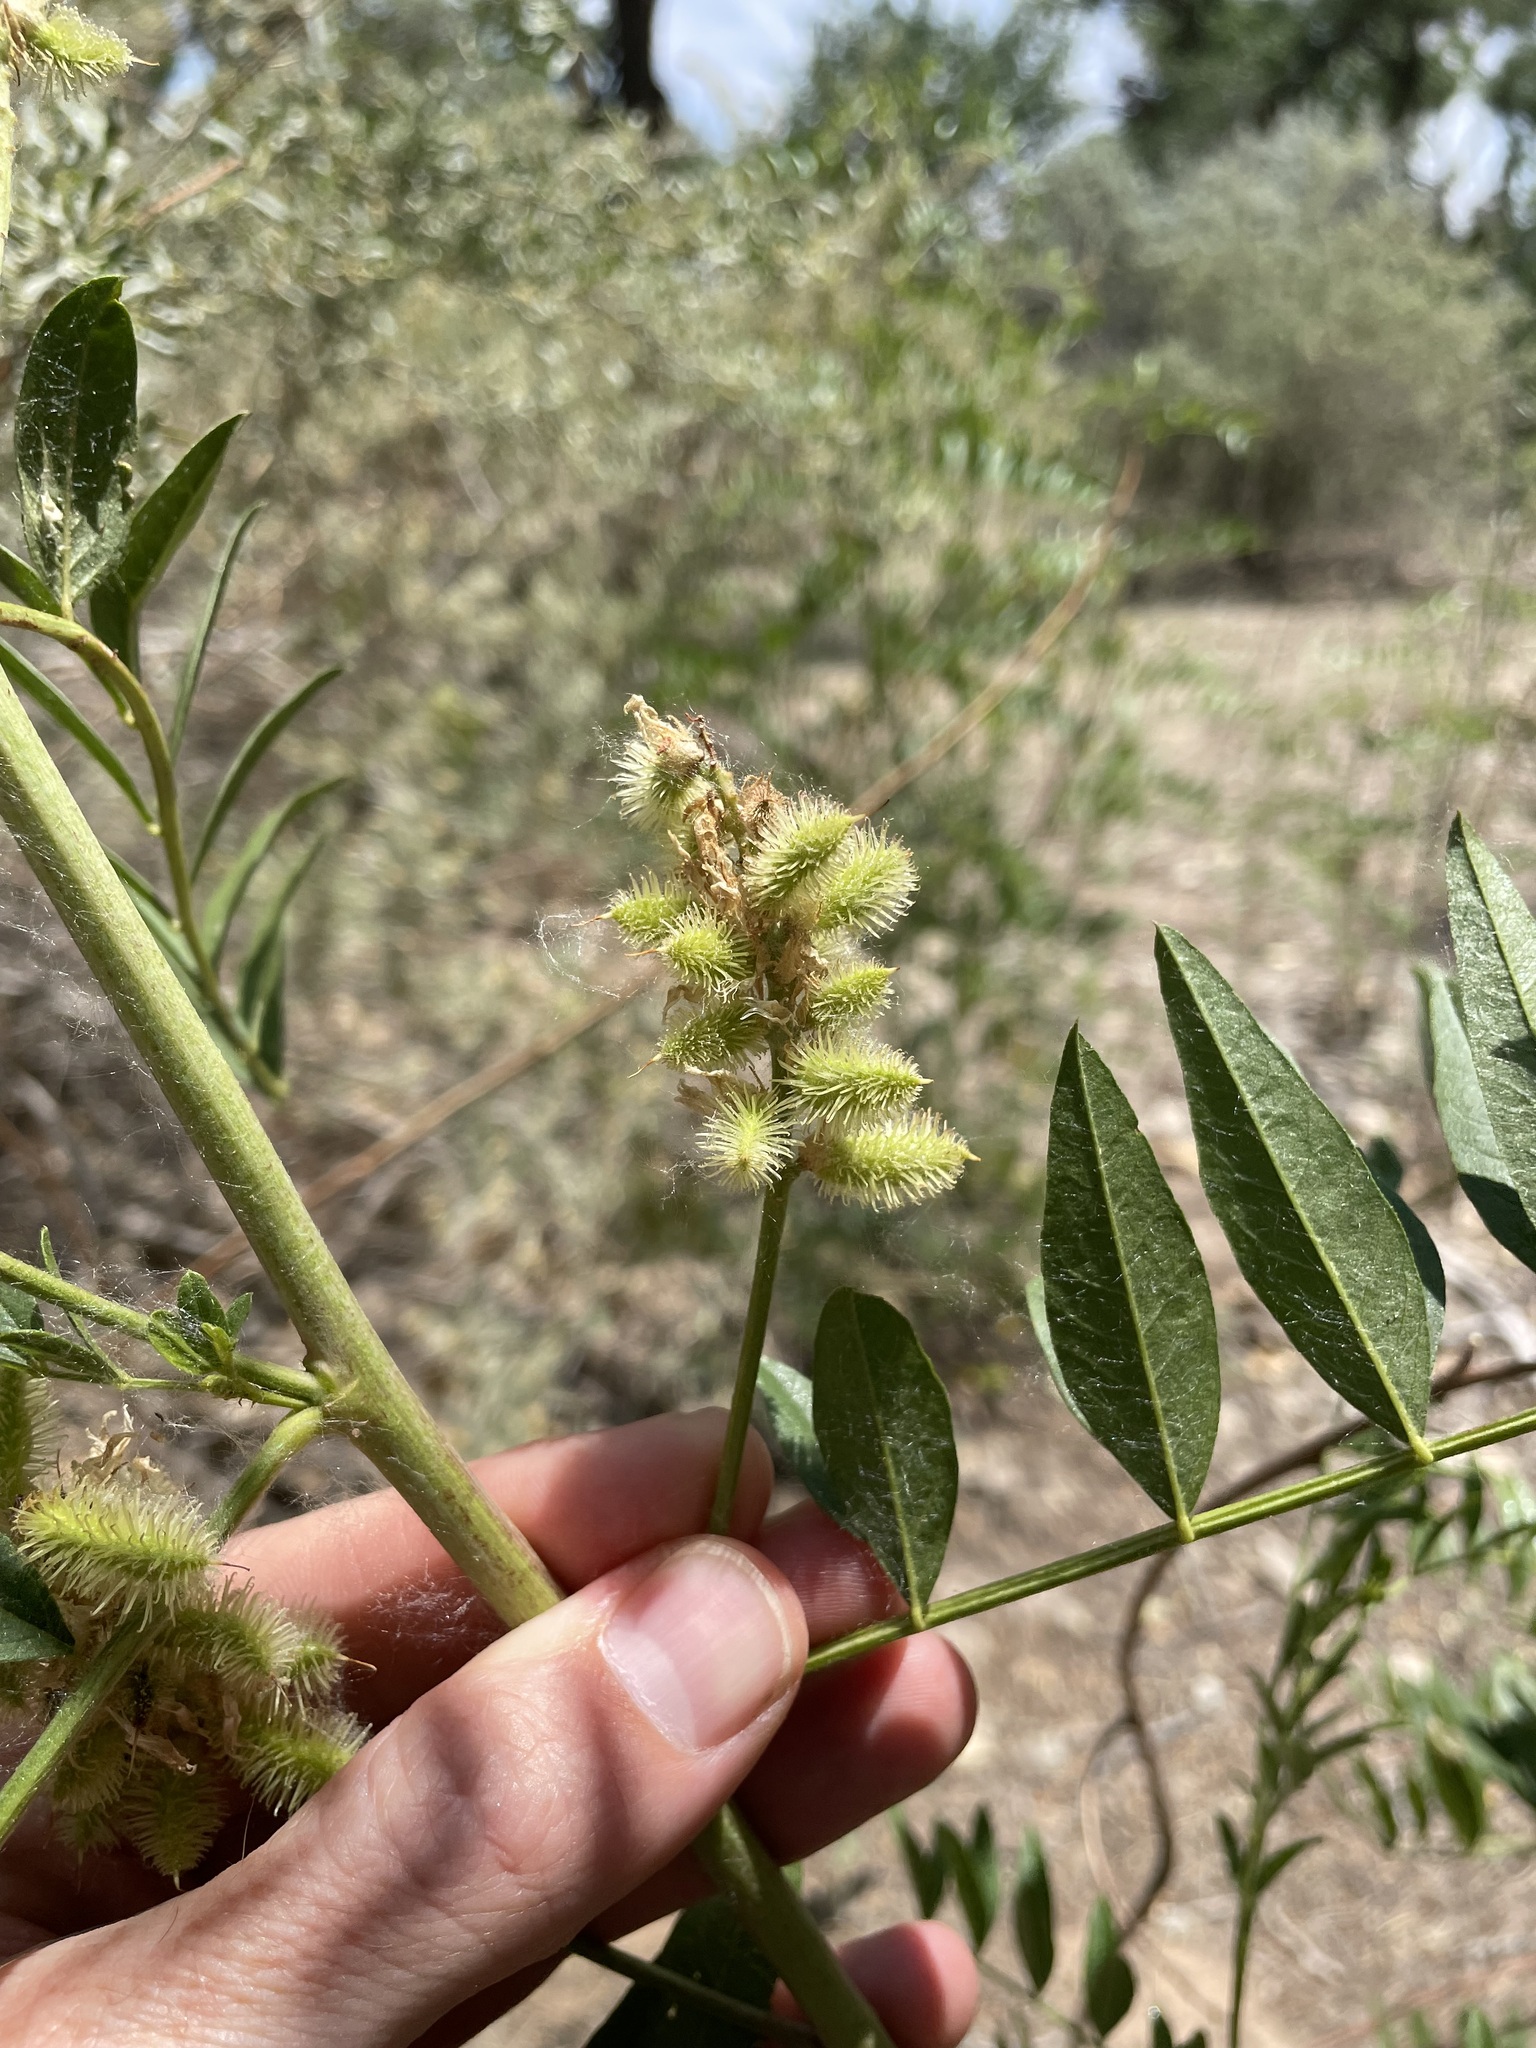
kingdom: Plantae
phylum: Tracheophyta
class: Magnoliopsida
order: Fabales
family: Fabaceae
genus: Glycyrrhiza
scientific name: Glycyrrhiza lepidota
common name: American liquorice
